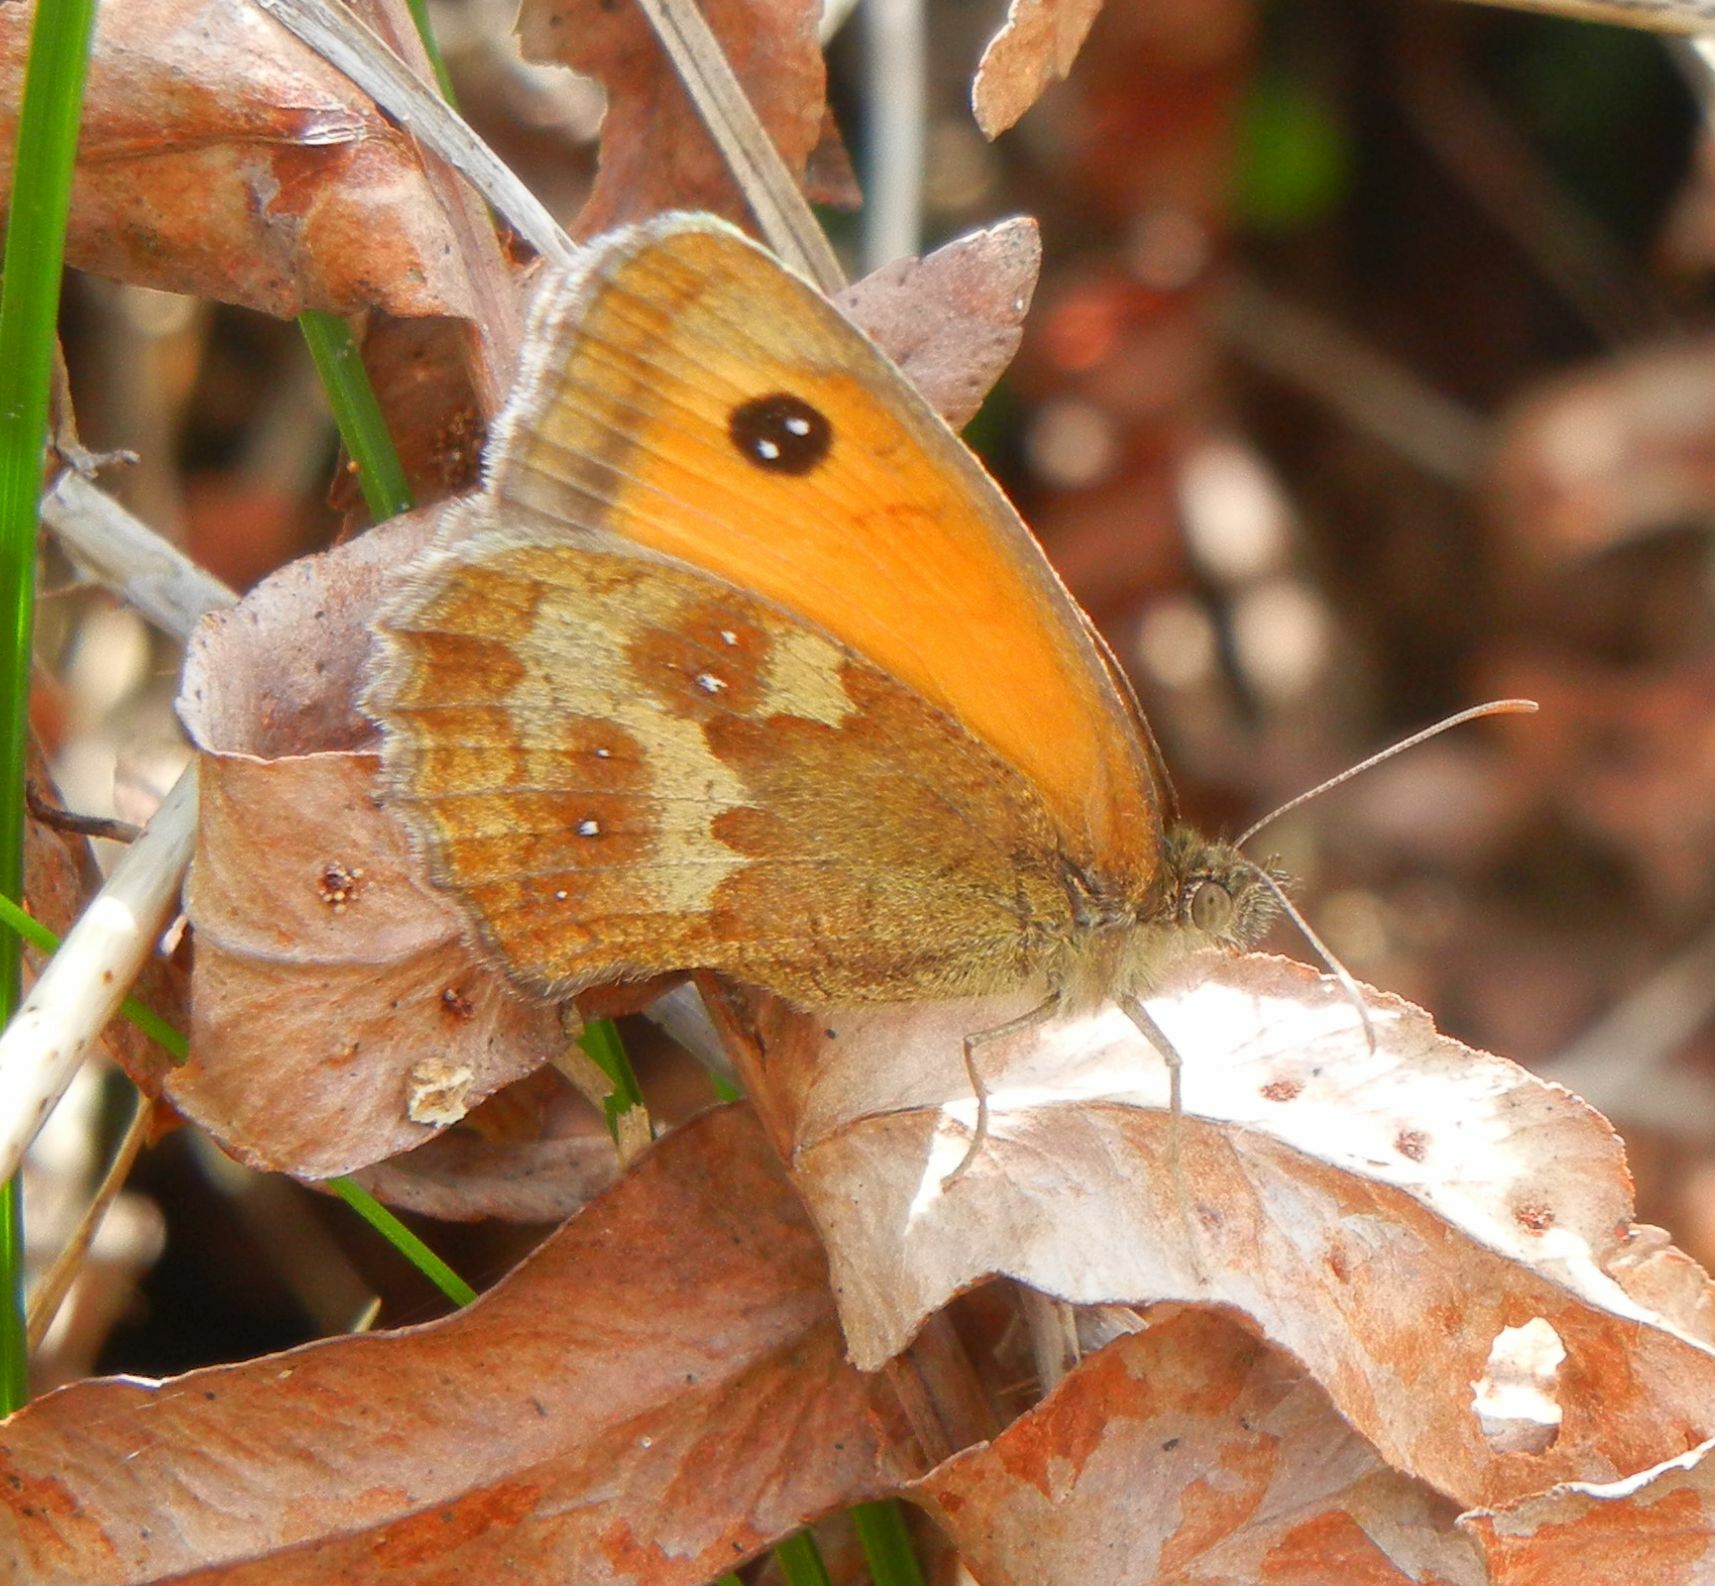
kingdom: Animalia
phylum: Arthropoda
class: Insecta
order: Lepidoptera
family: Nymphalidae
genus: Pyronia
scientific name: Pyronia tithonus
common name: Gatekeeper
